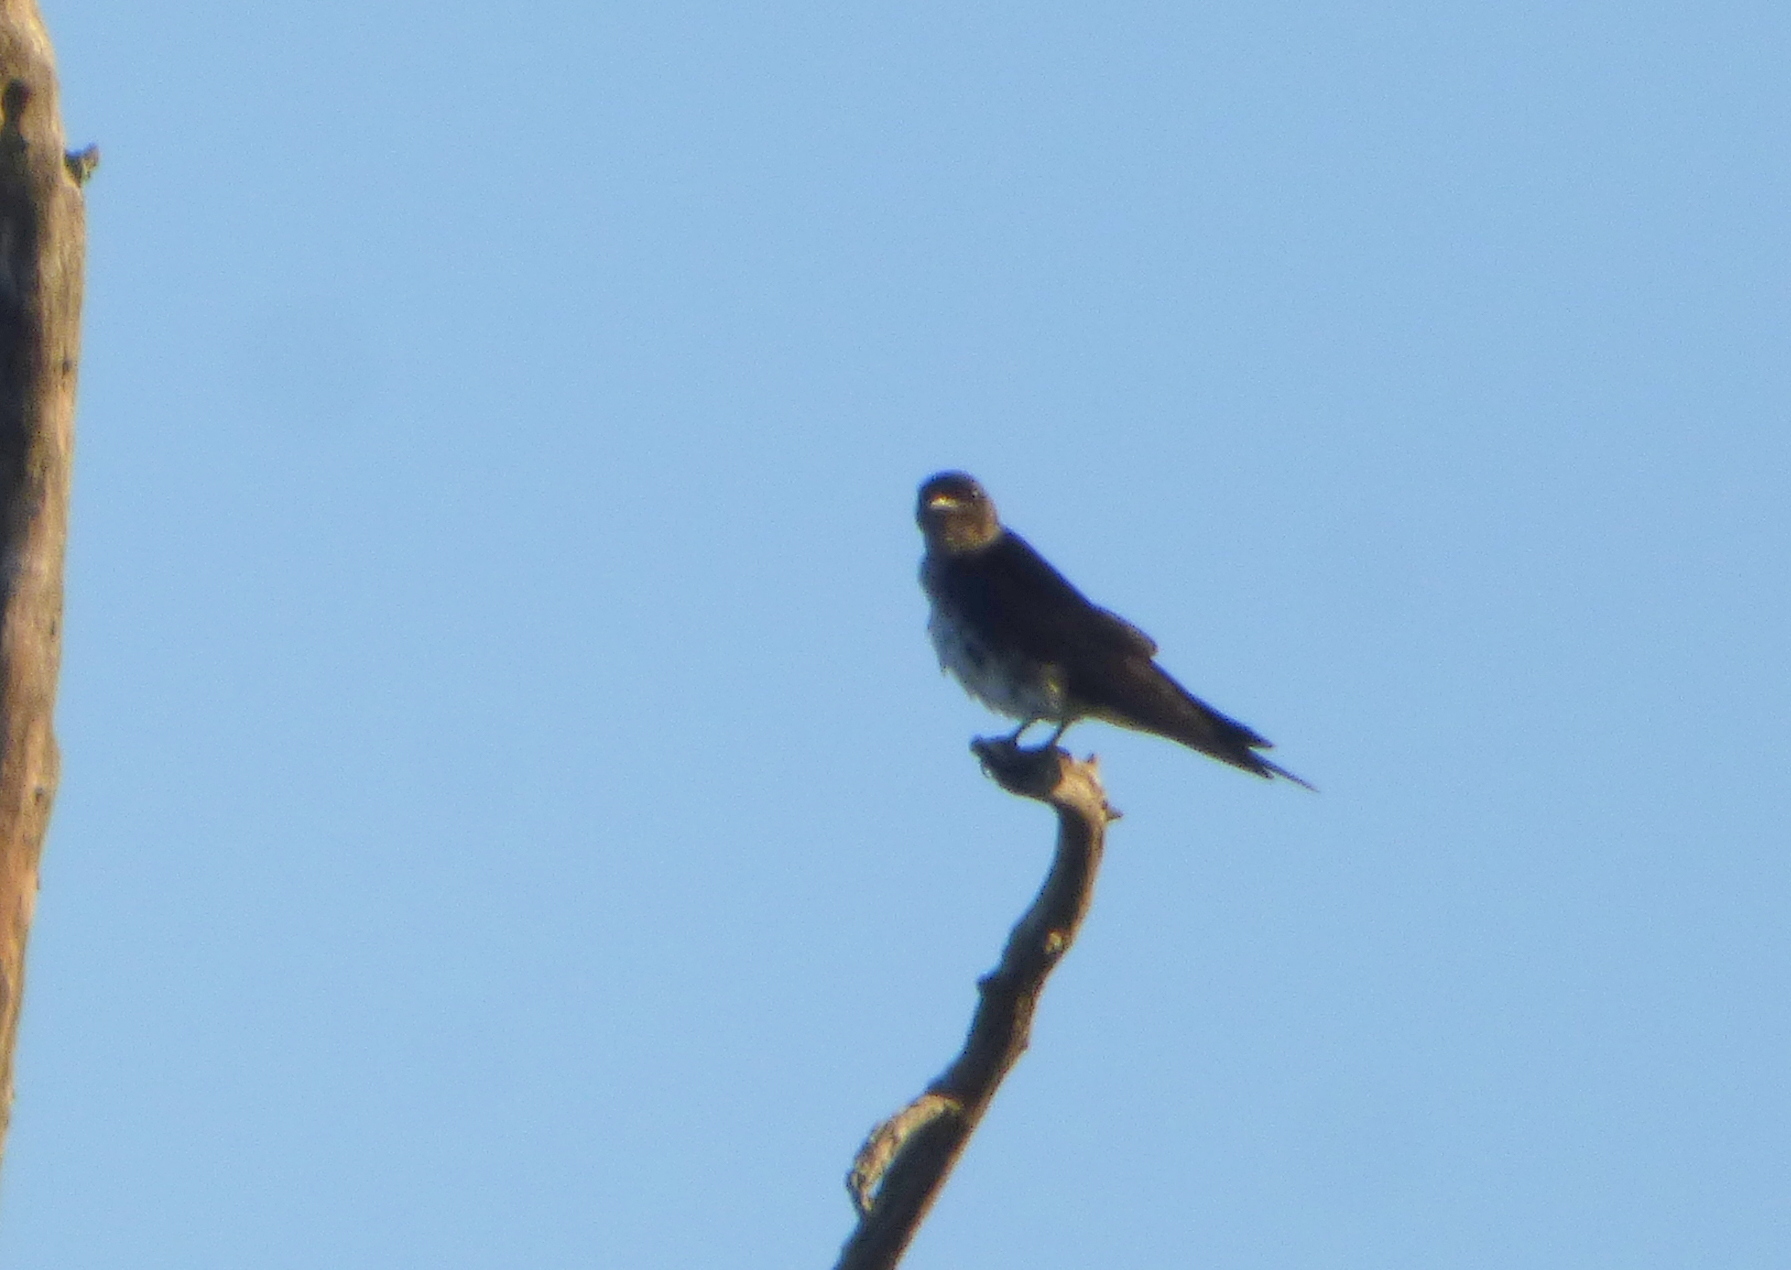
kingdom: Animalia
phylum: Chordata
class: Aves
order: Passeriformes
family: Hirundinidae
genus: Progne
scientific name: Progne chalybea
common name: Grey-breasted martin
